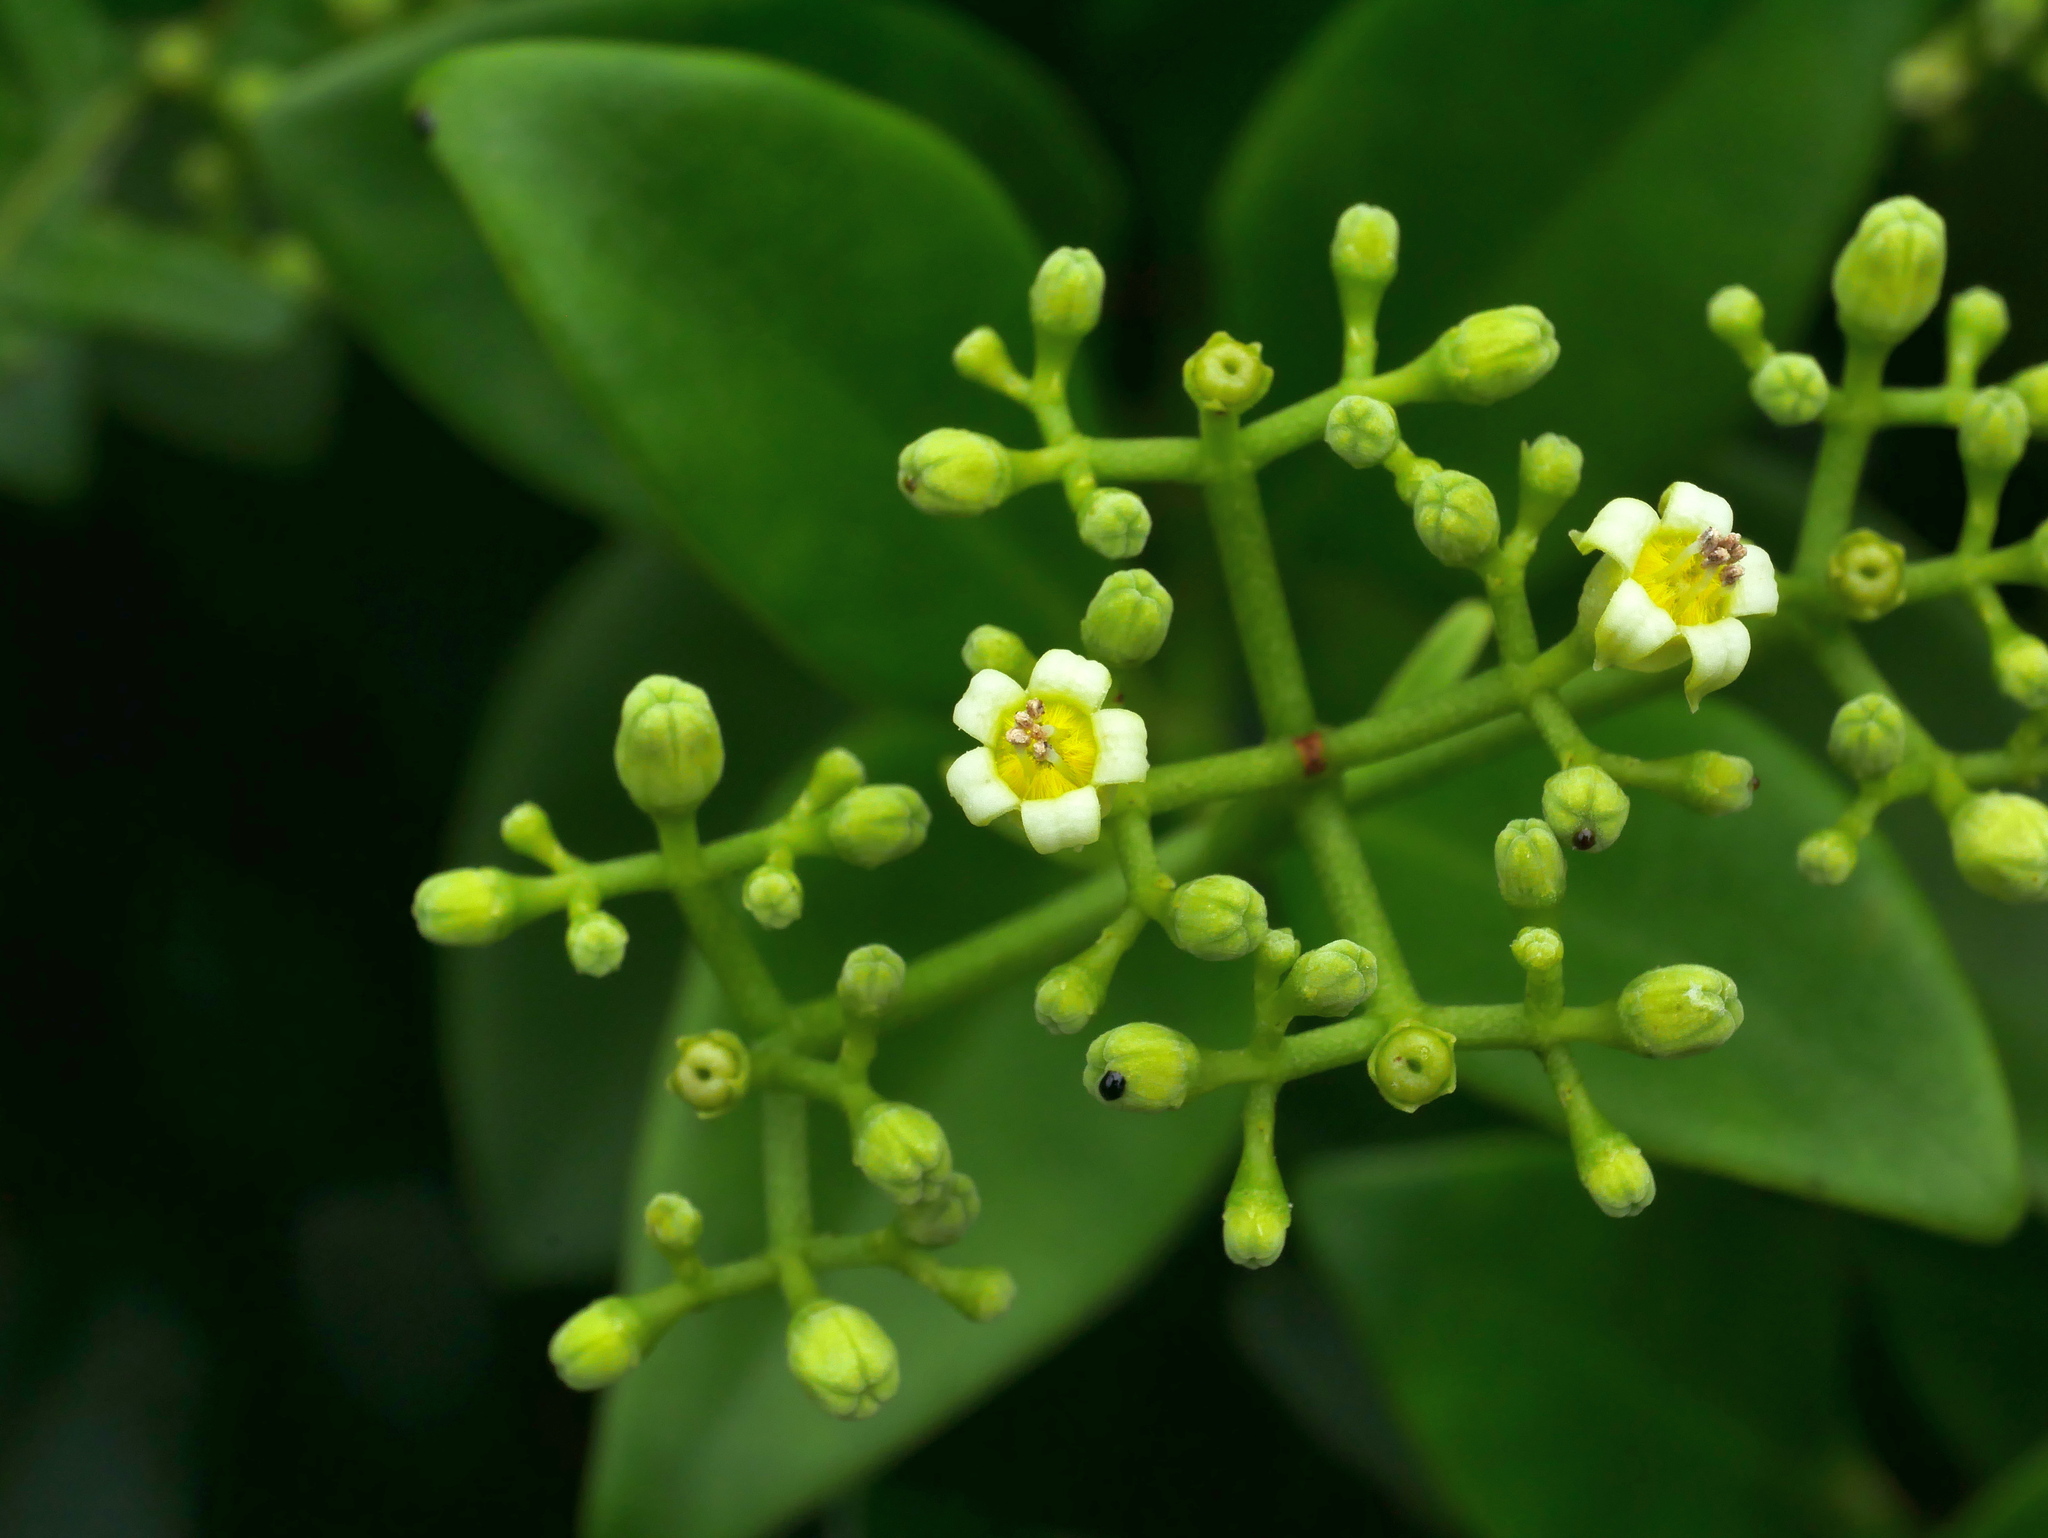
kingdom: Plantae
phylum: Tracheophyta
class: Magnoliopsida
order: Gentianales
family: Rubiaceae
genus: Psychotria
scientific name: Psychotria serpens
